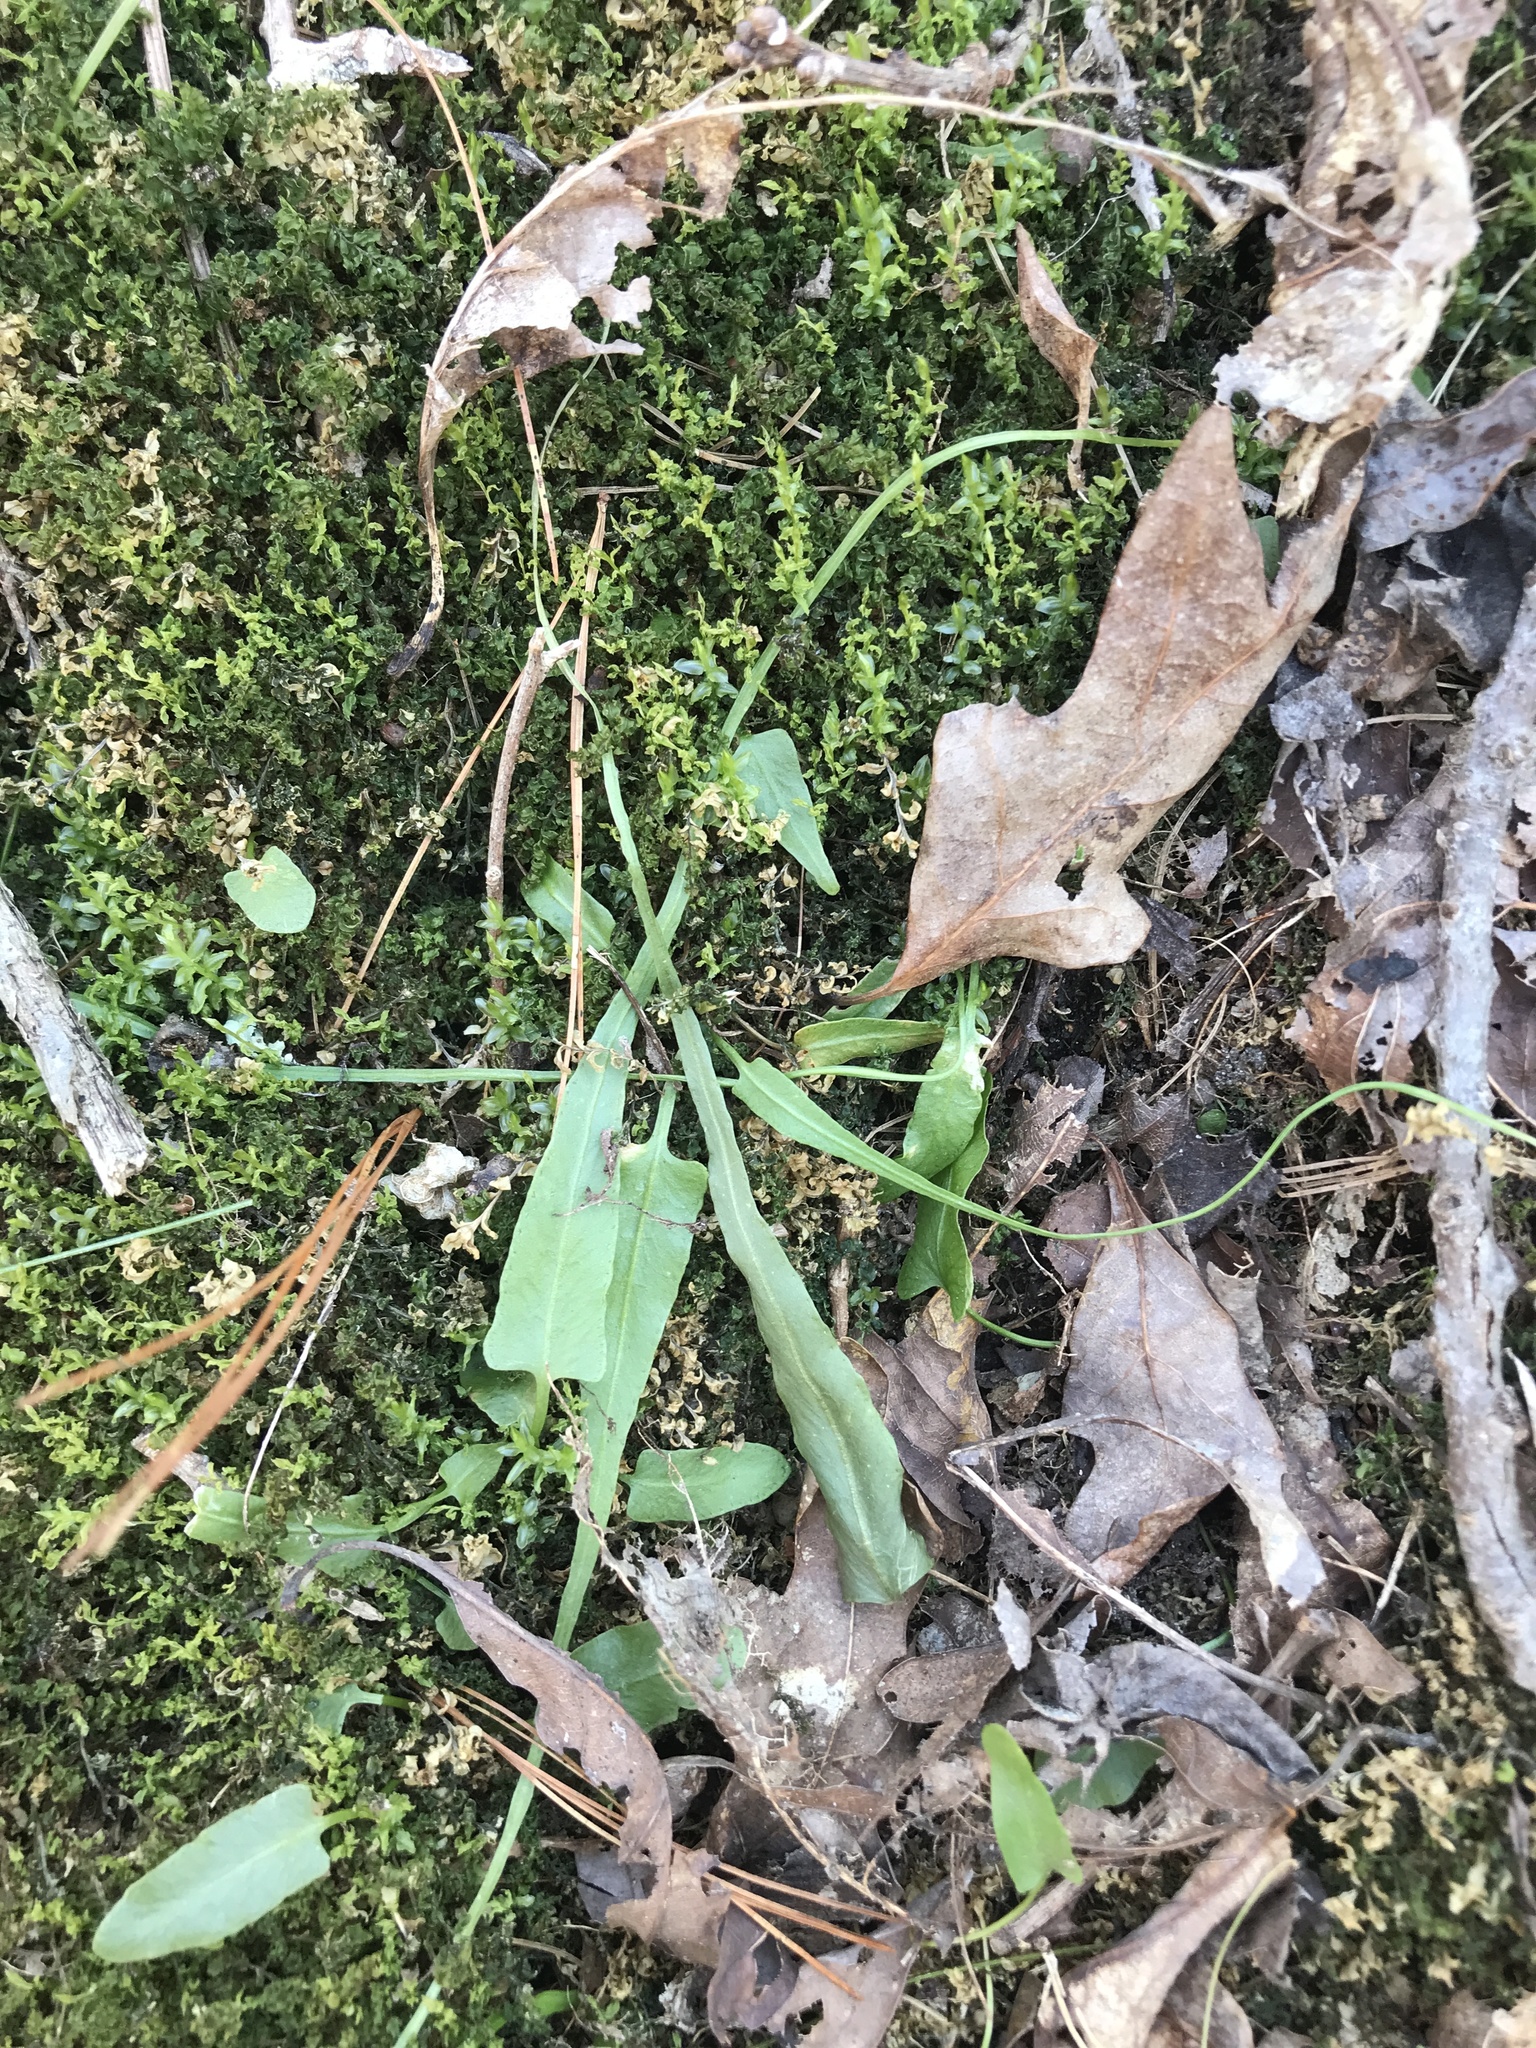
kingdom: Plantae
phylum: Tracheophyta
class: Polypodiopsida
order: Polypodiales
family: Aspleniaceae
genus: Asplenium
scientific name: Asplenium rhizophyllum
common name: Walking fern
